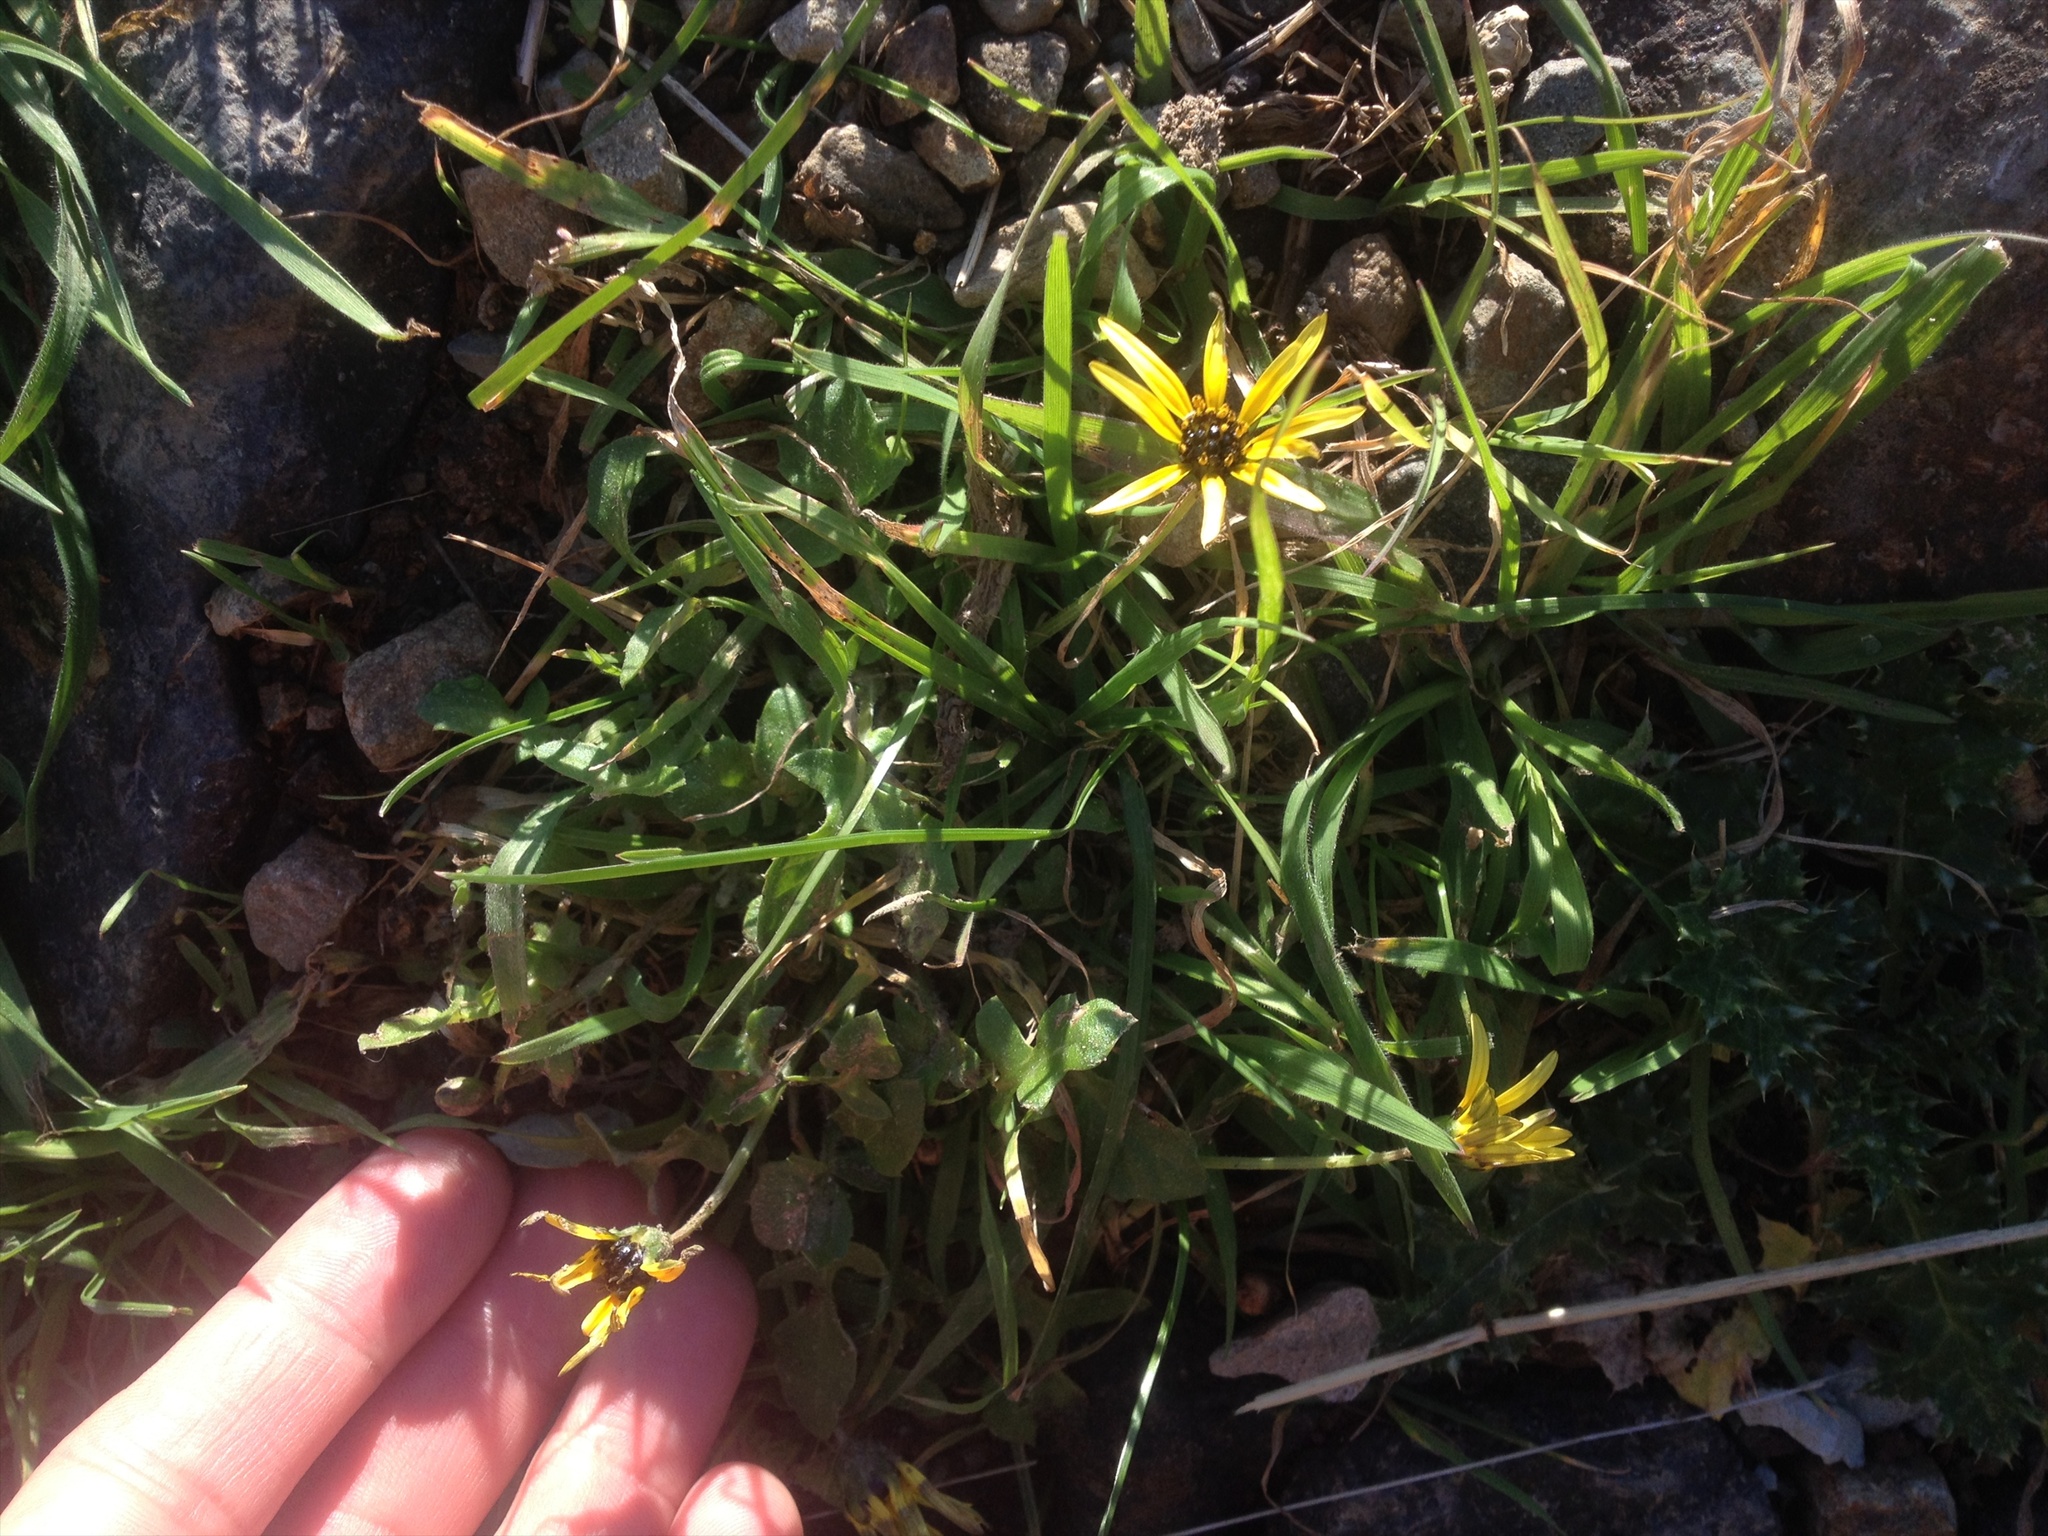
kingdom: Plantae
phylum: Tracheophyta
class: Magnoliopsida
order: Asterales
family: Asteraceae
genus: Arctotheca
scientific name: Arctotheca calendula
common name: Capeweed
